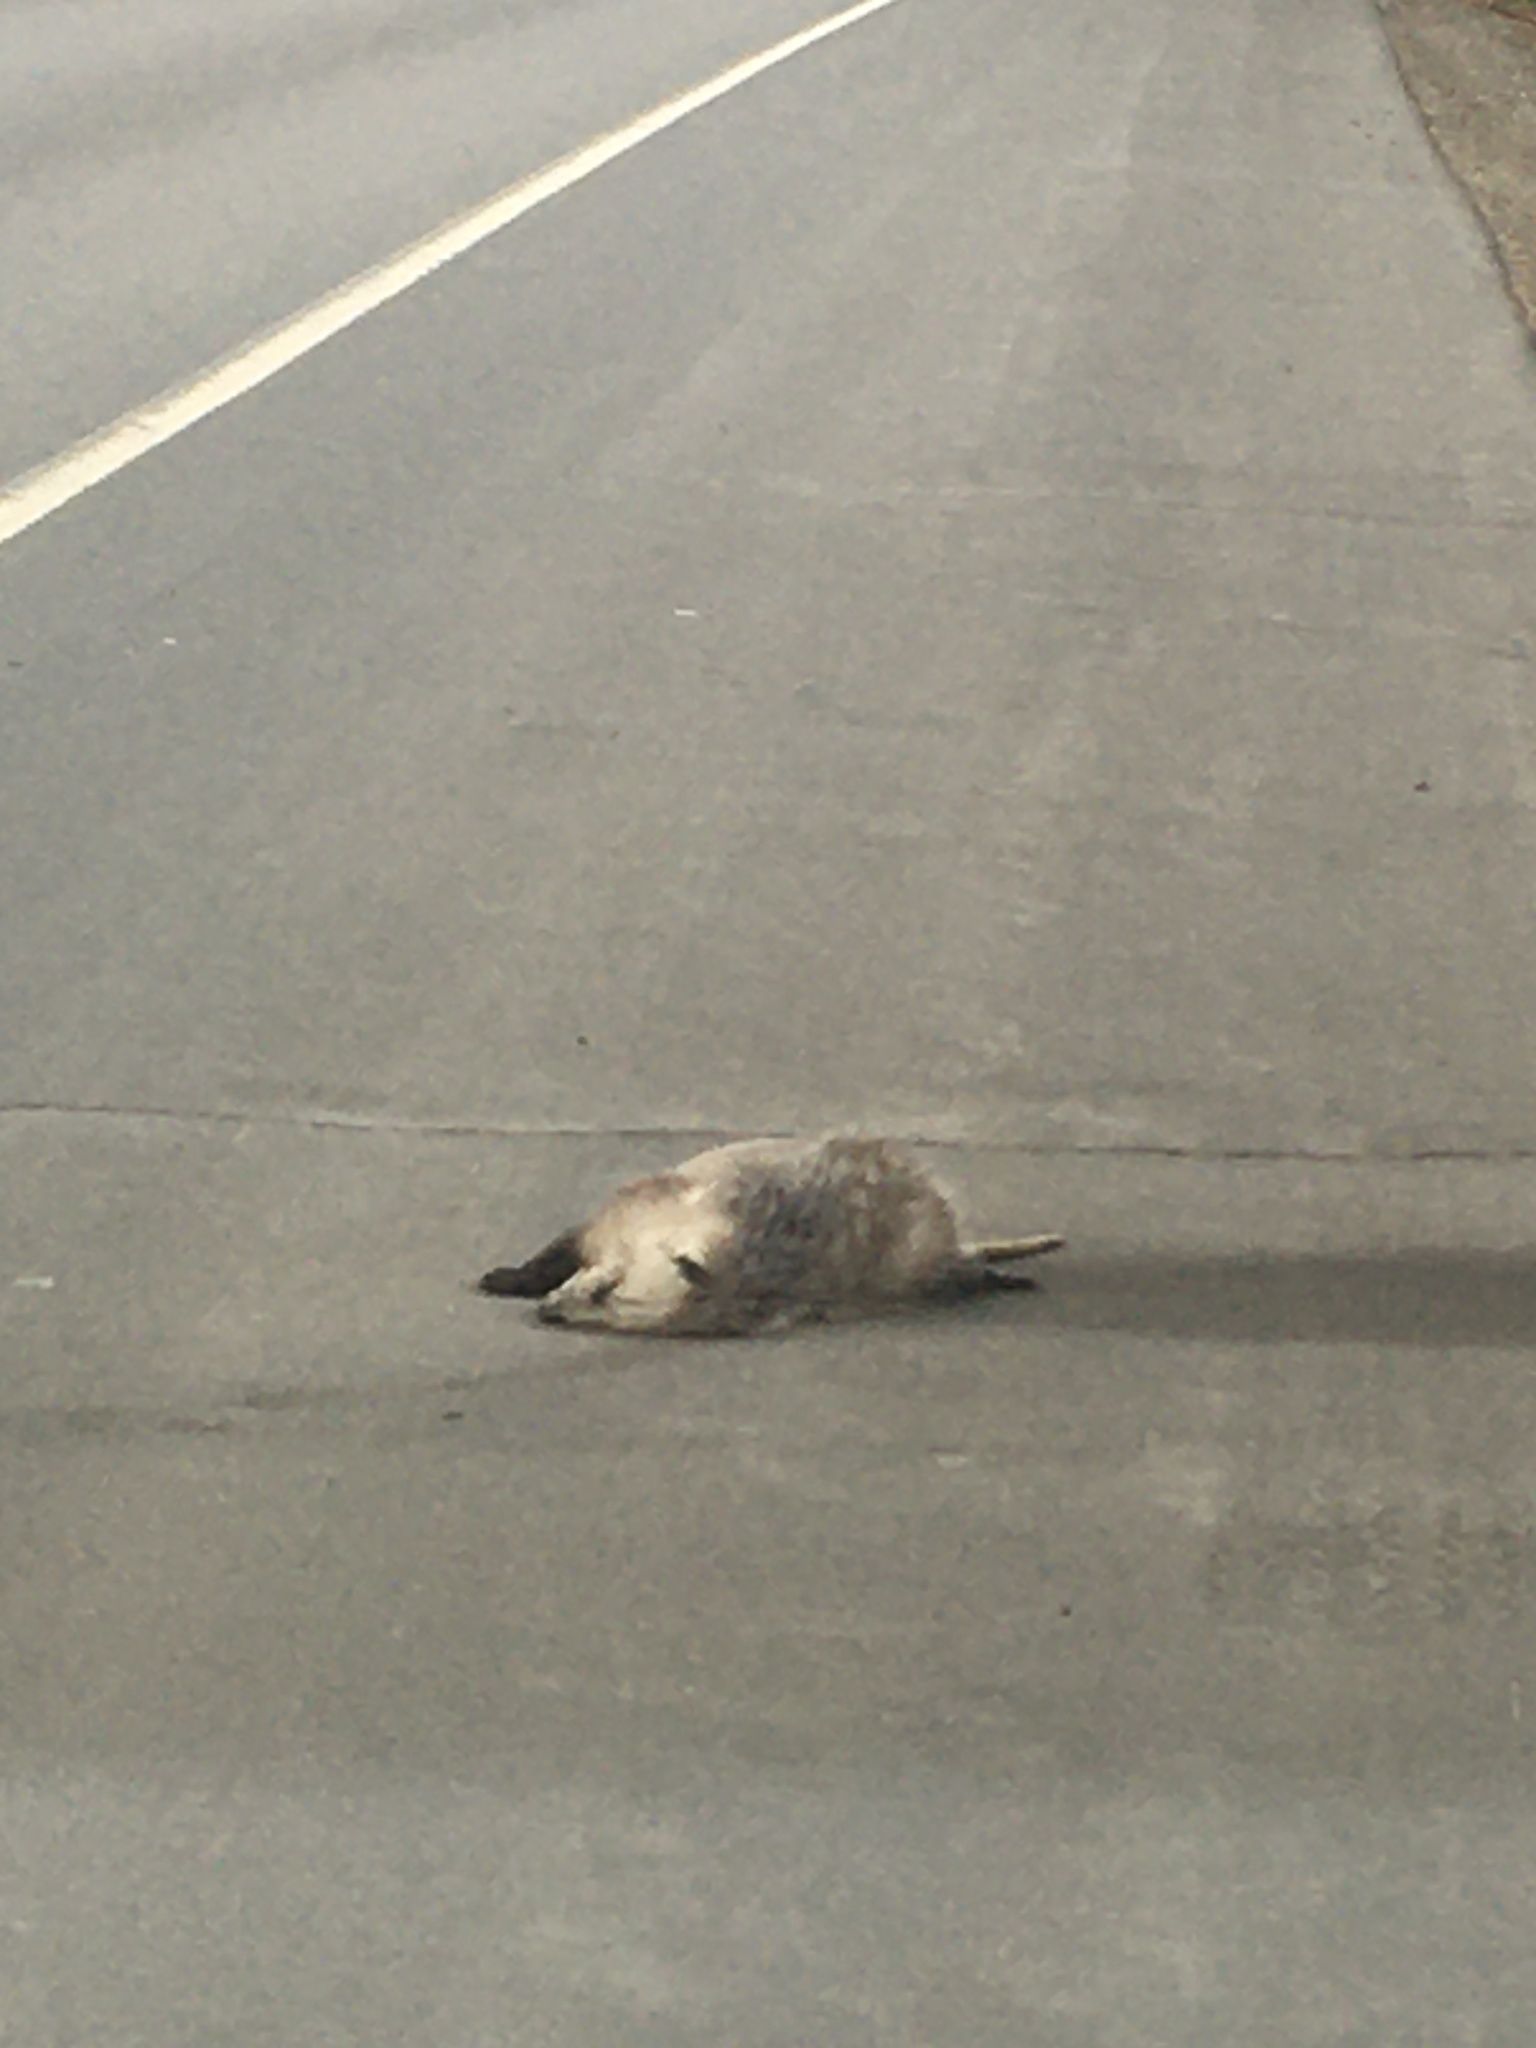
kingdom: Animalia
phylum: Chordata
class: Mammalia
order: Didelphimorphia
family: Didelphidae
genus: Didelphis
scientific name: Didelphis virginiana
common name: Virginia opossum
